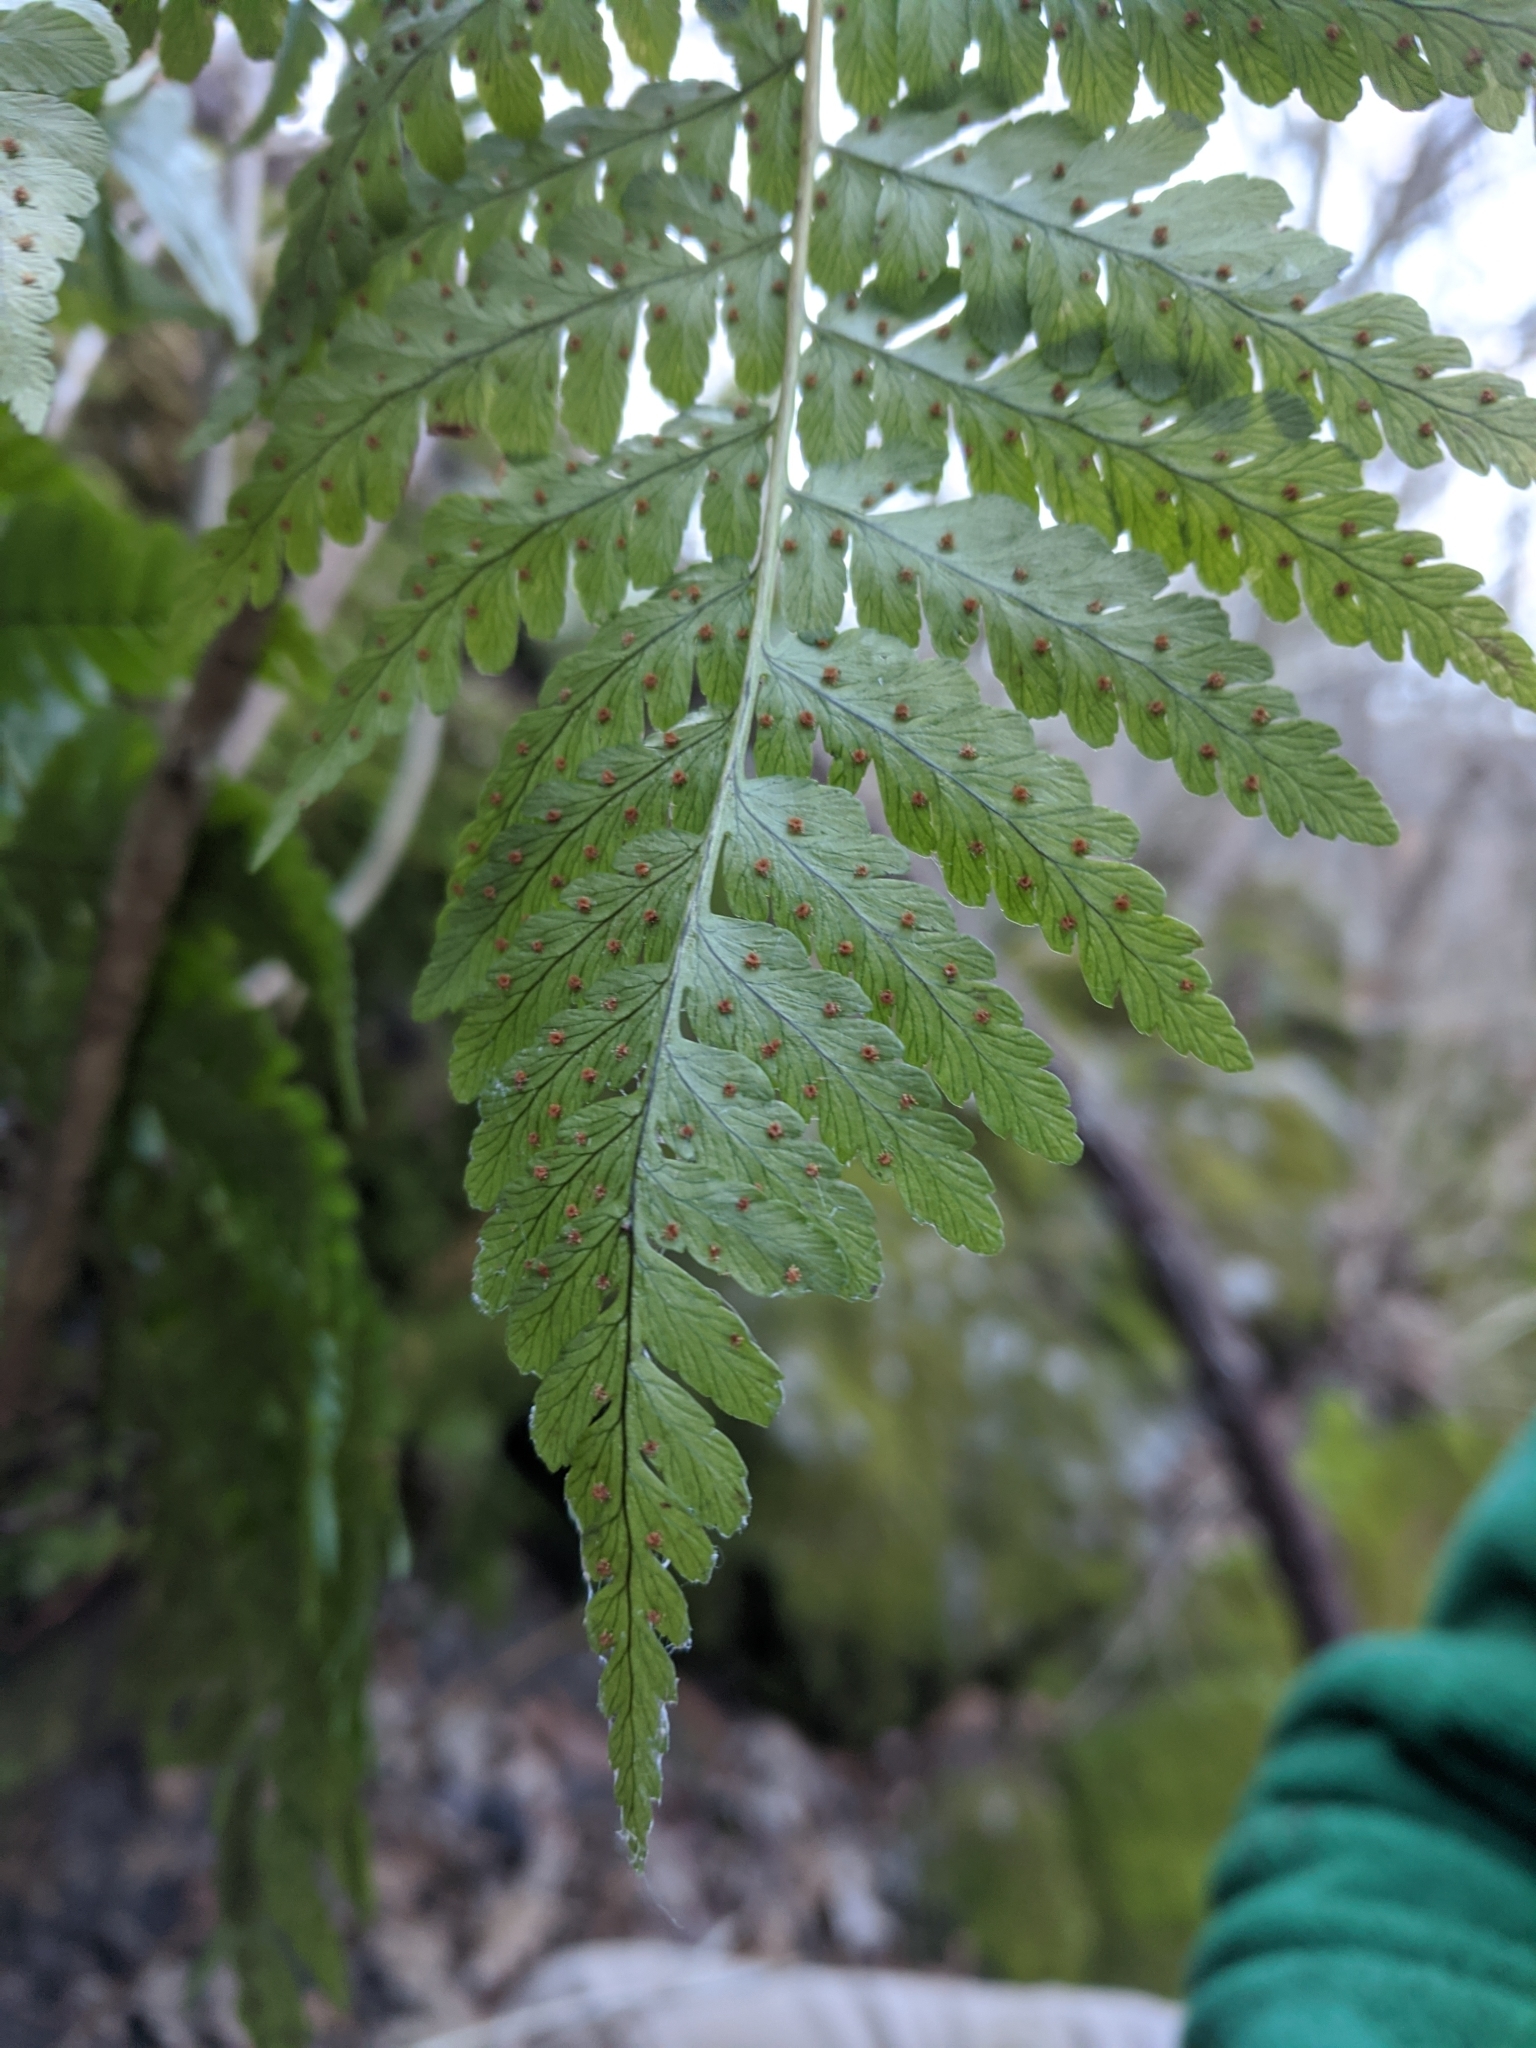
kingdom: Plantae
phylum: Tracheophyta
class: Polypodiopsida
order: Polypodiales
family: Dryopteridaceae
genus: Dryopteris
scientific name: Dryopteris marginalis
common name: Marginal wood fern
